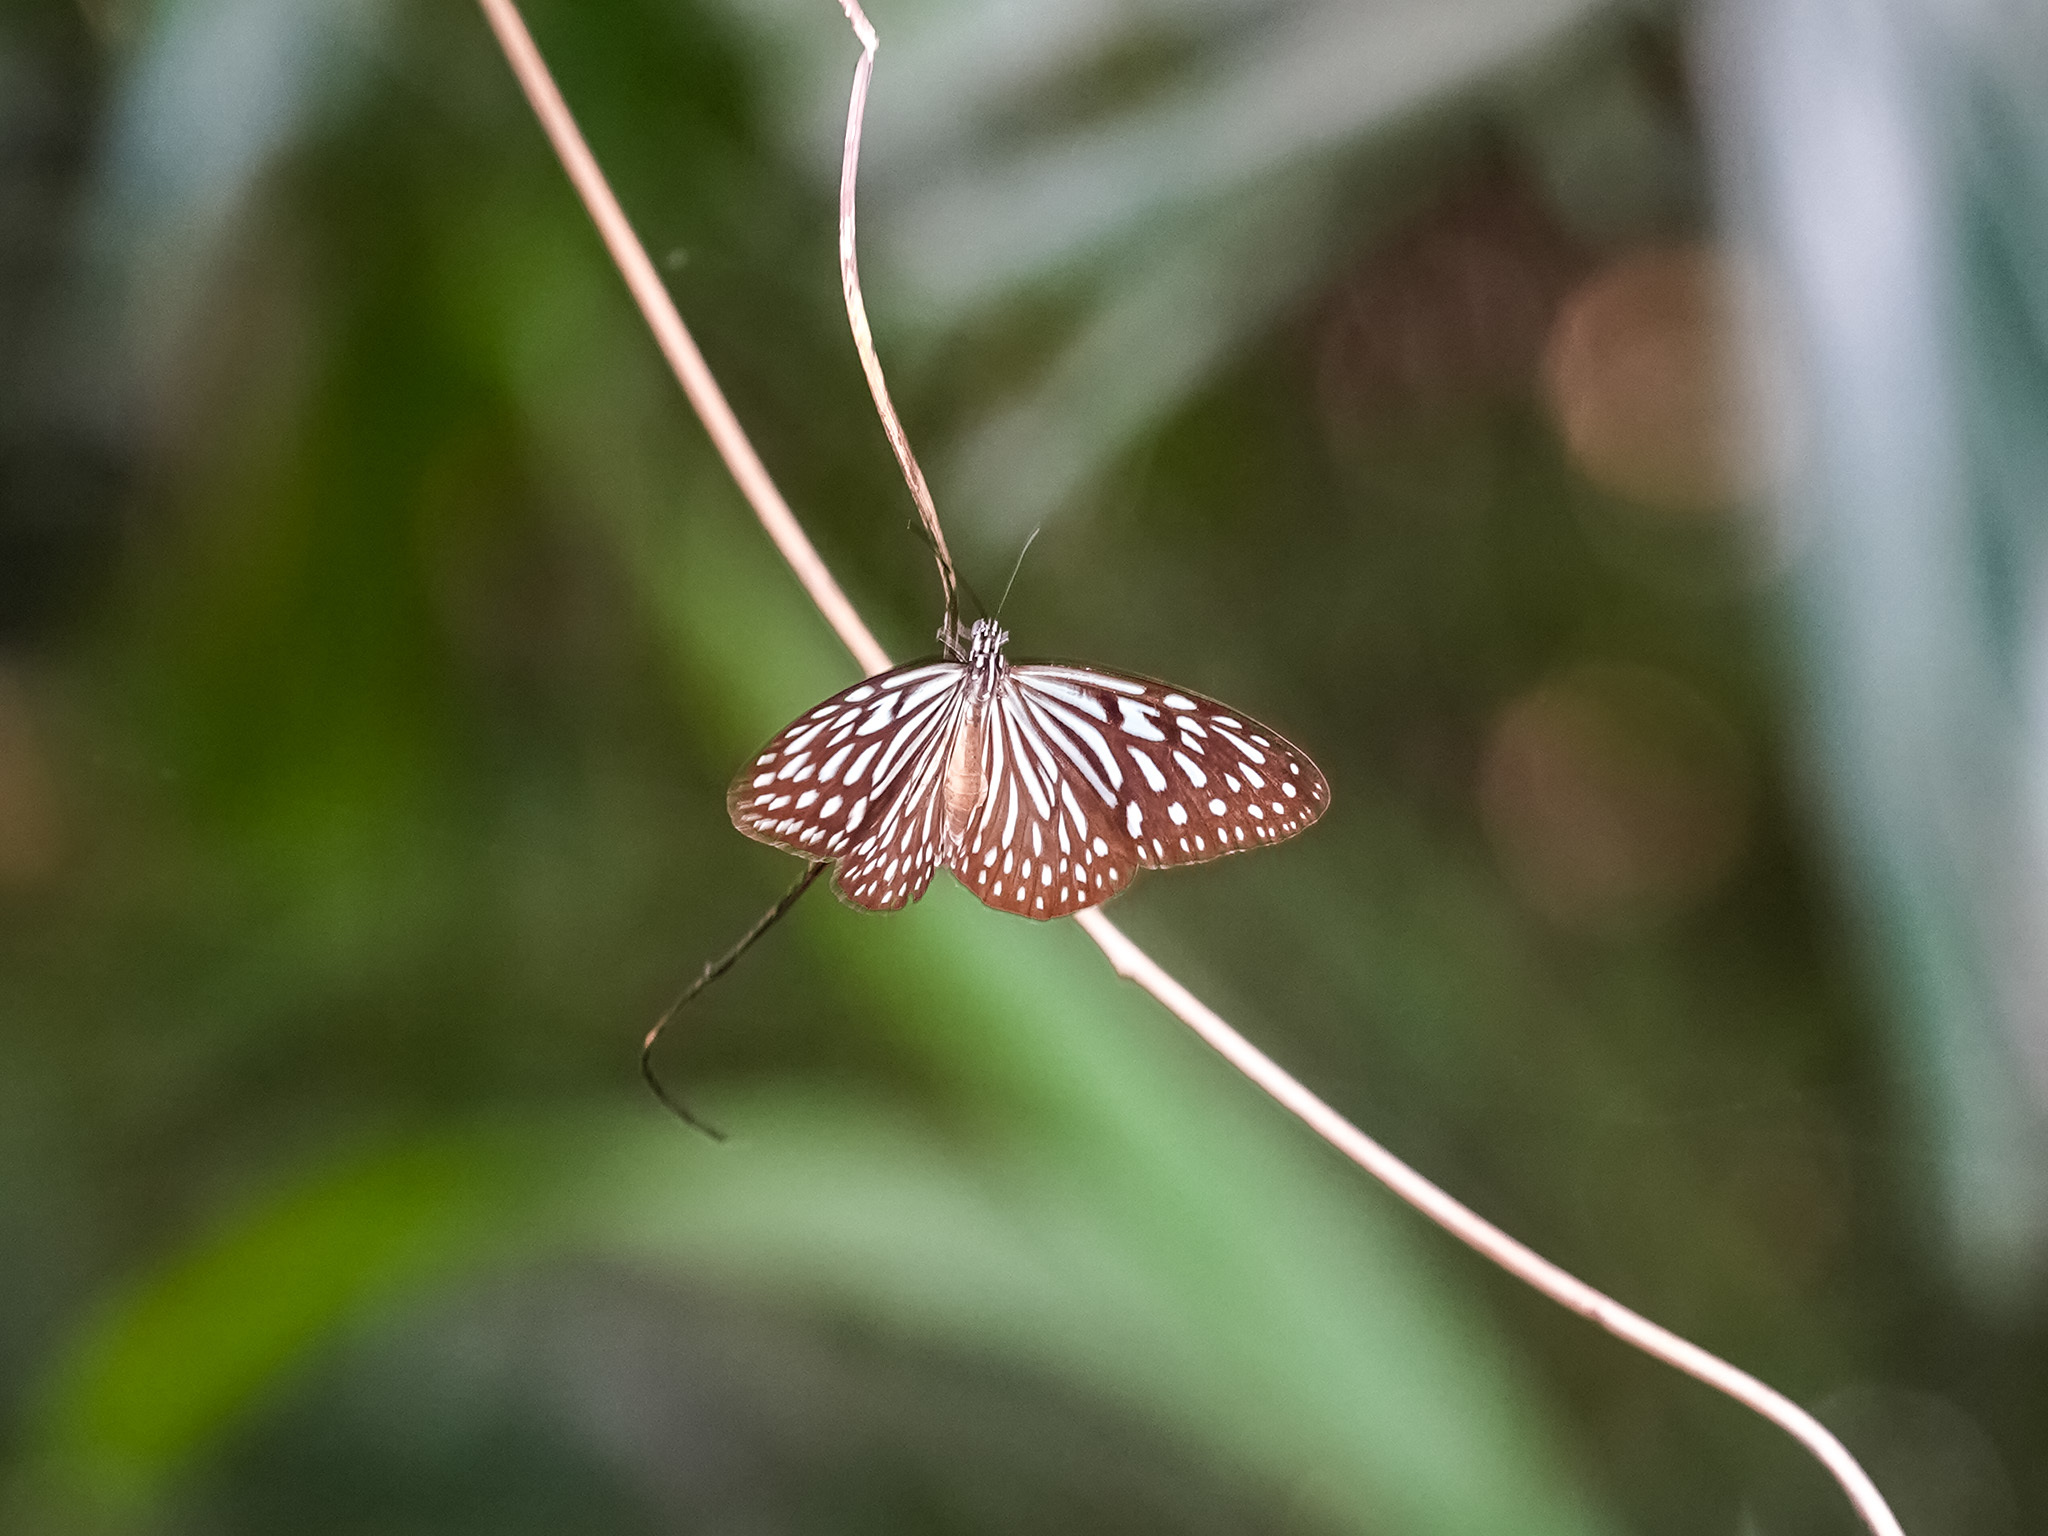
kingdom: Animalia
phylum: Arthropoda
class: Insecta
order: Lepidoptera
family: Nymphalidae
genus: Ideopsis
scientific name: Ideopsis vulgaris
